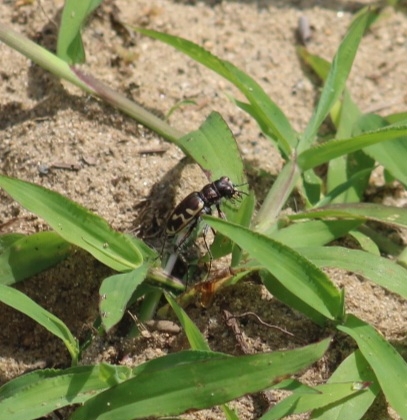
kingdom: Animalia
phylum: Arthropoda
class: Insecta
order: Coleoptera
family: Carabidae
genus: Cicindela
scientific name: Cicindela formosa
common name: Big sand tiger beetle
